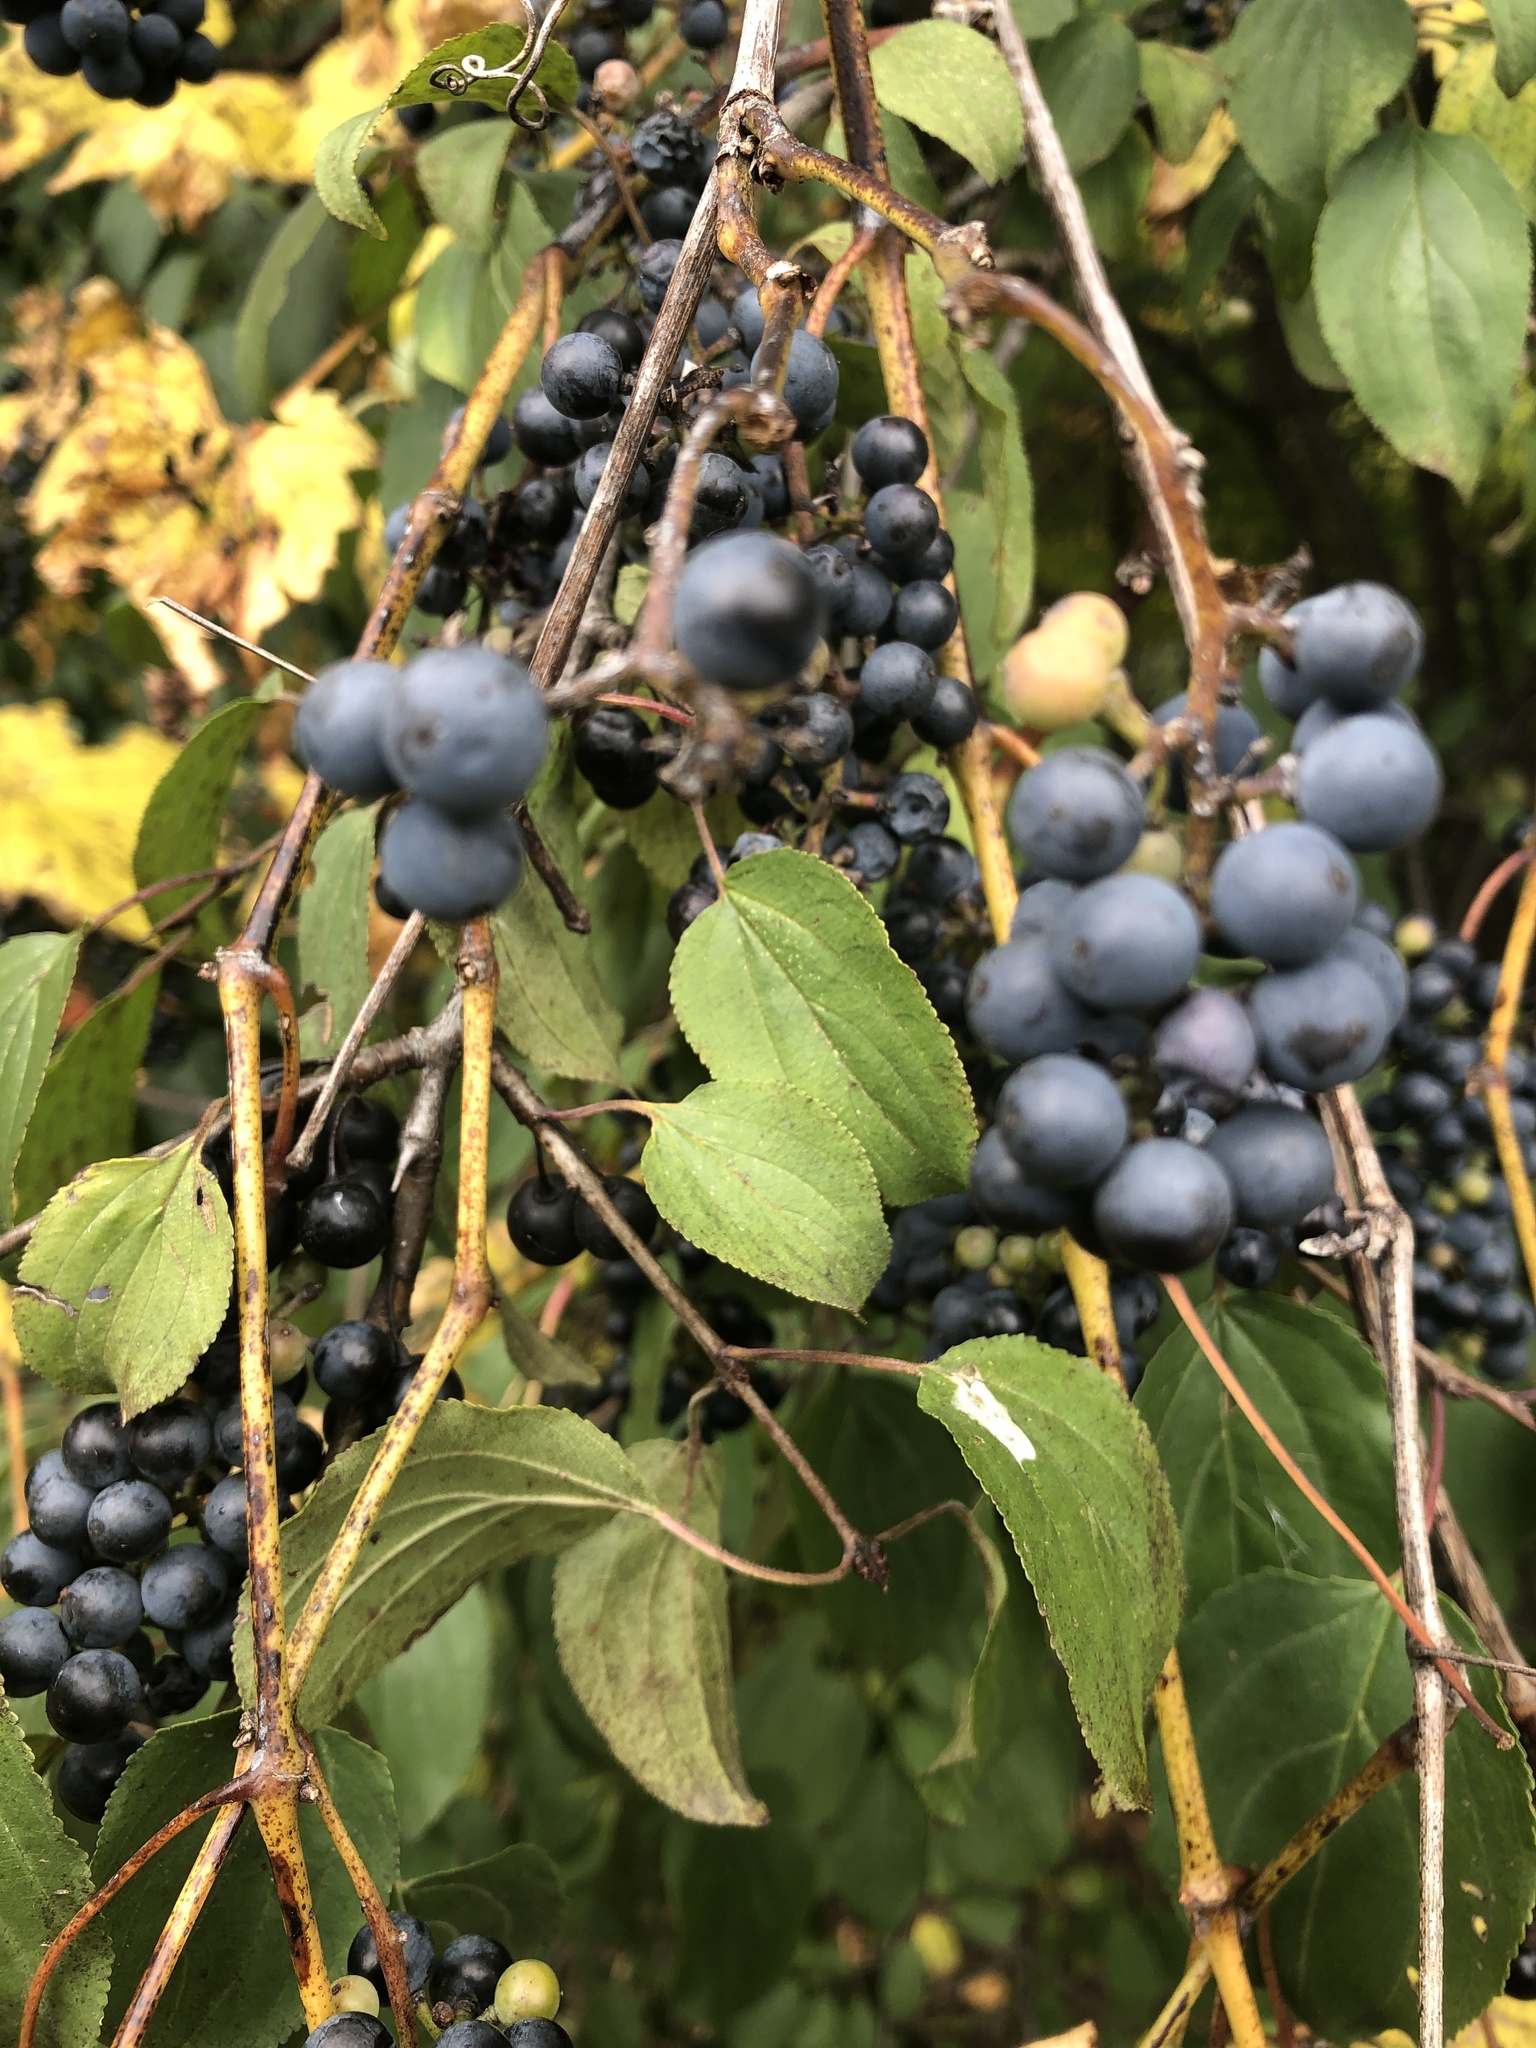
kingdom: Plantae
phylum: Tracheophyta
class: Magnoliopsida
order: Rosales
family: Rhamnaceae
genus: Rhamnus
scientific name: Rhamnus cathartica
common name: Common buckthorn
